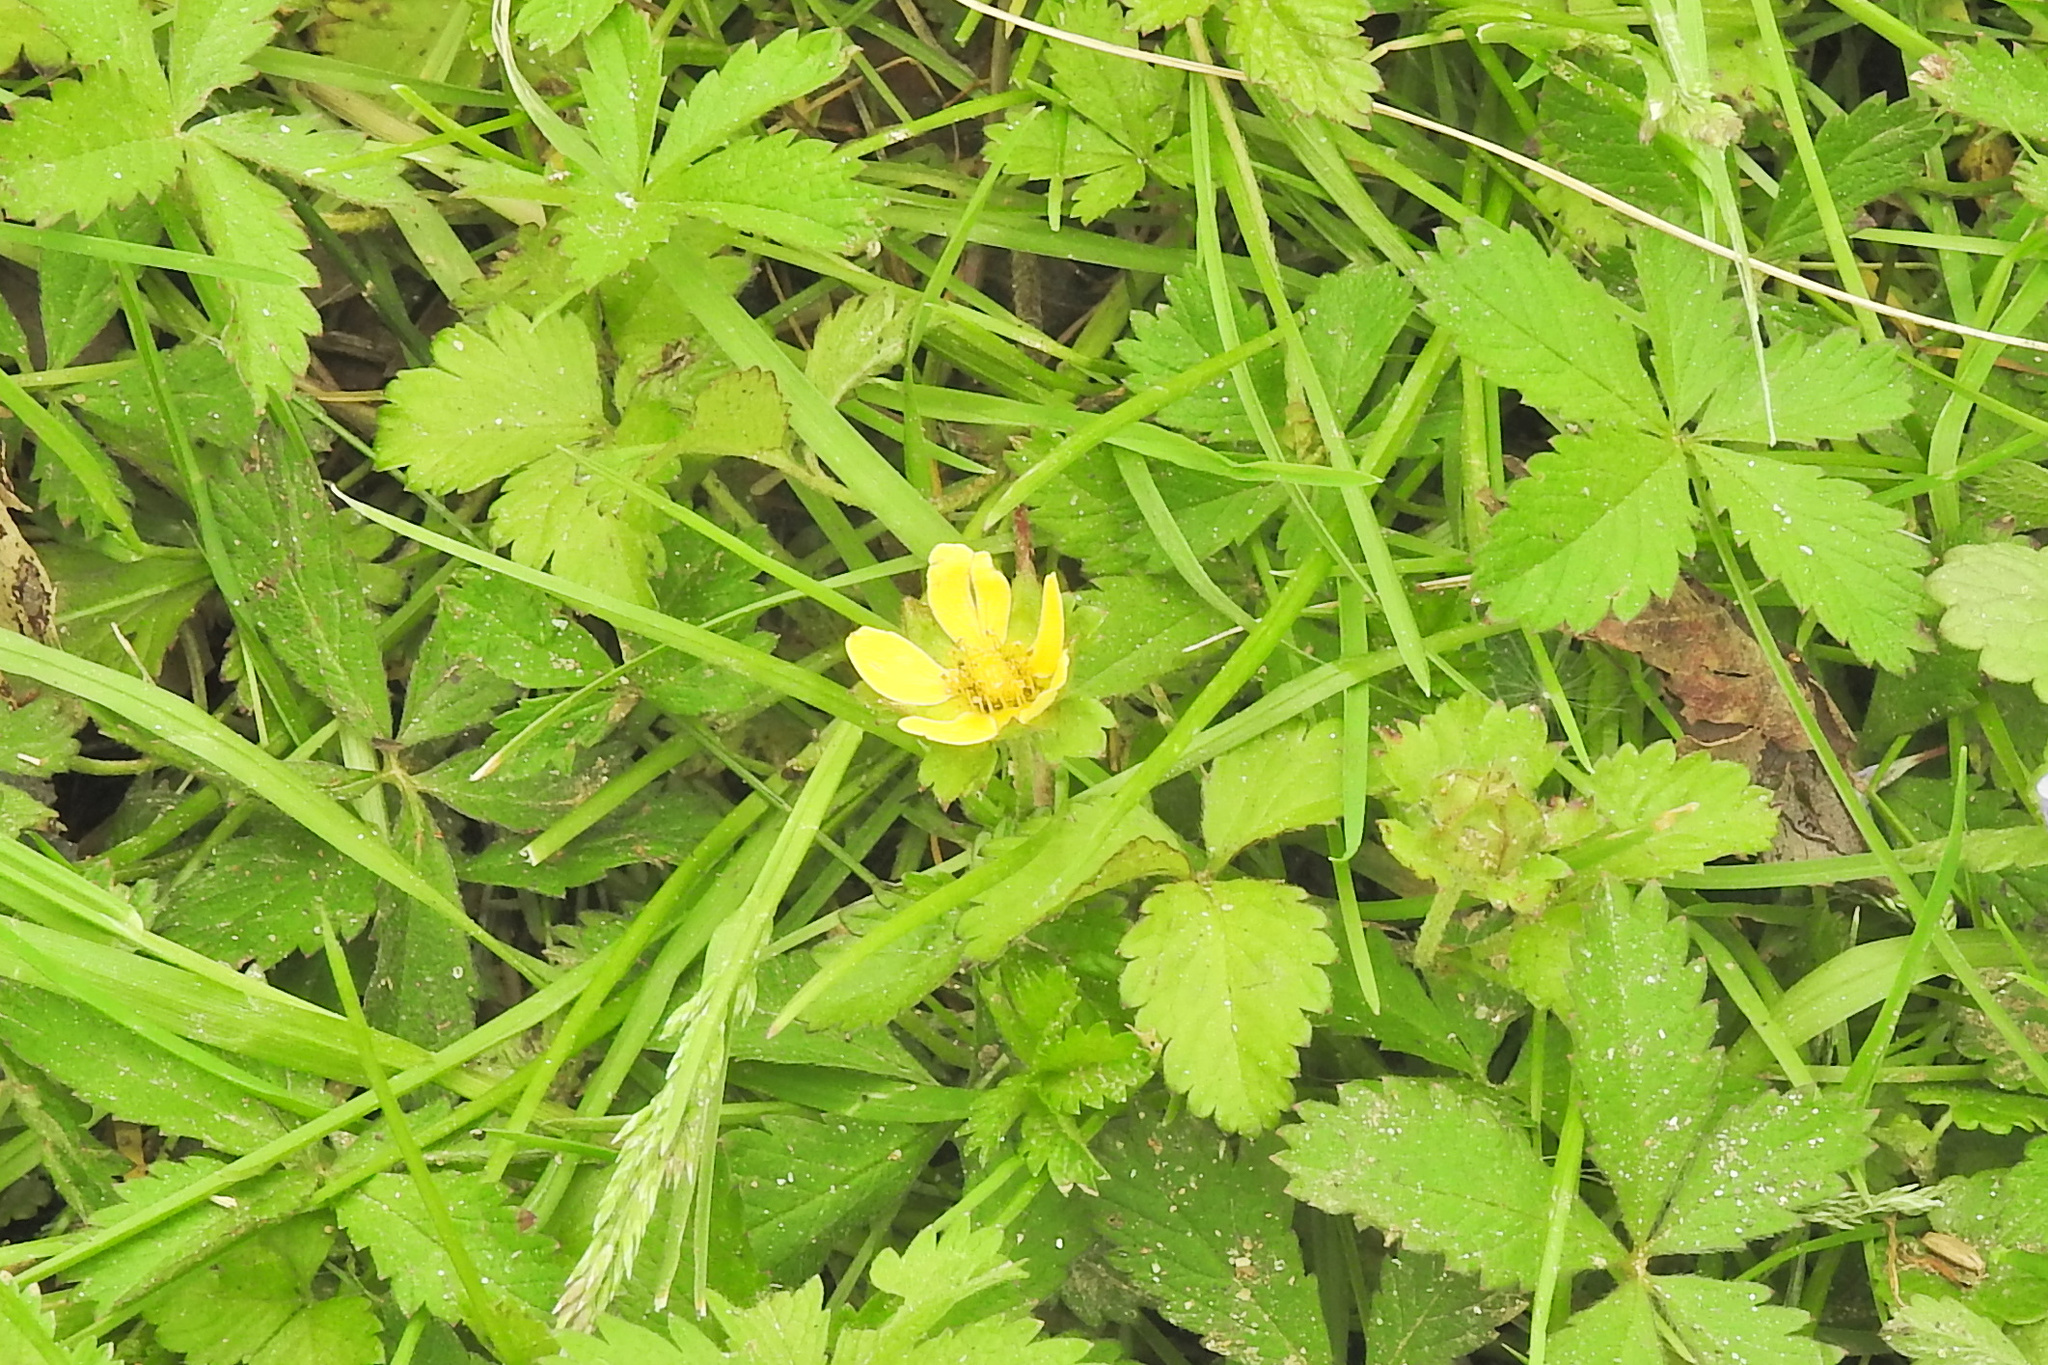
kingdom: Plantae
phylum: Tracheophyta
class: Magnoliopsida
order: Rosales
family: Rosaceae
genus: Potentilla
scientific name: Potentilla indica
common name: Yellow-flowered strawberry
